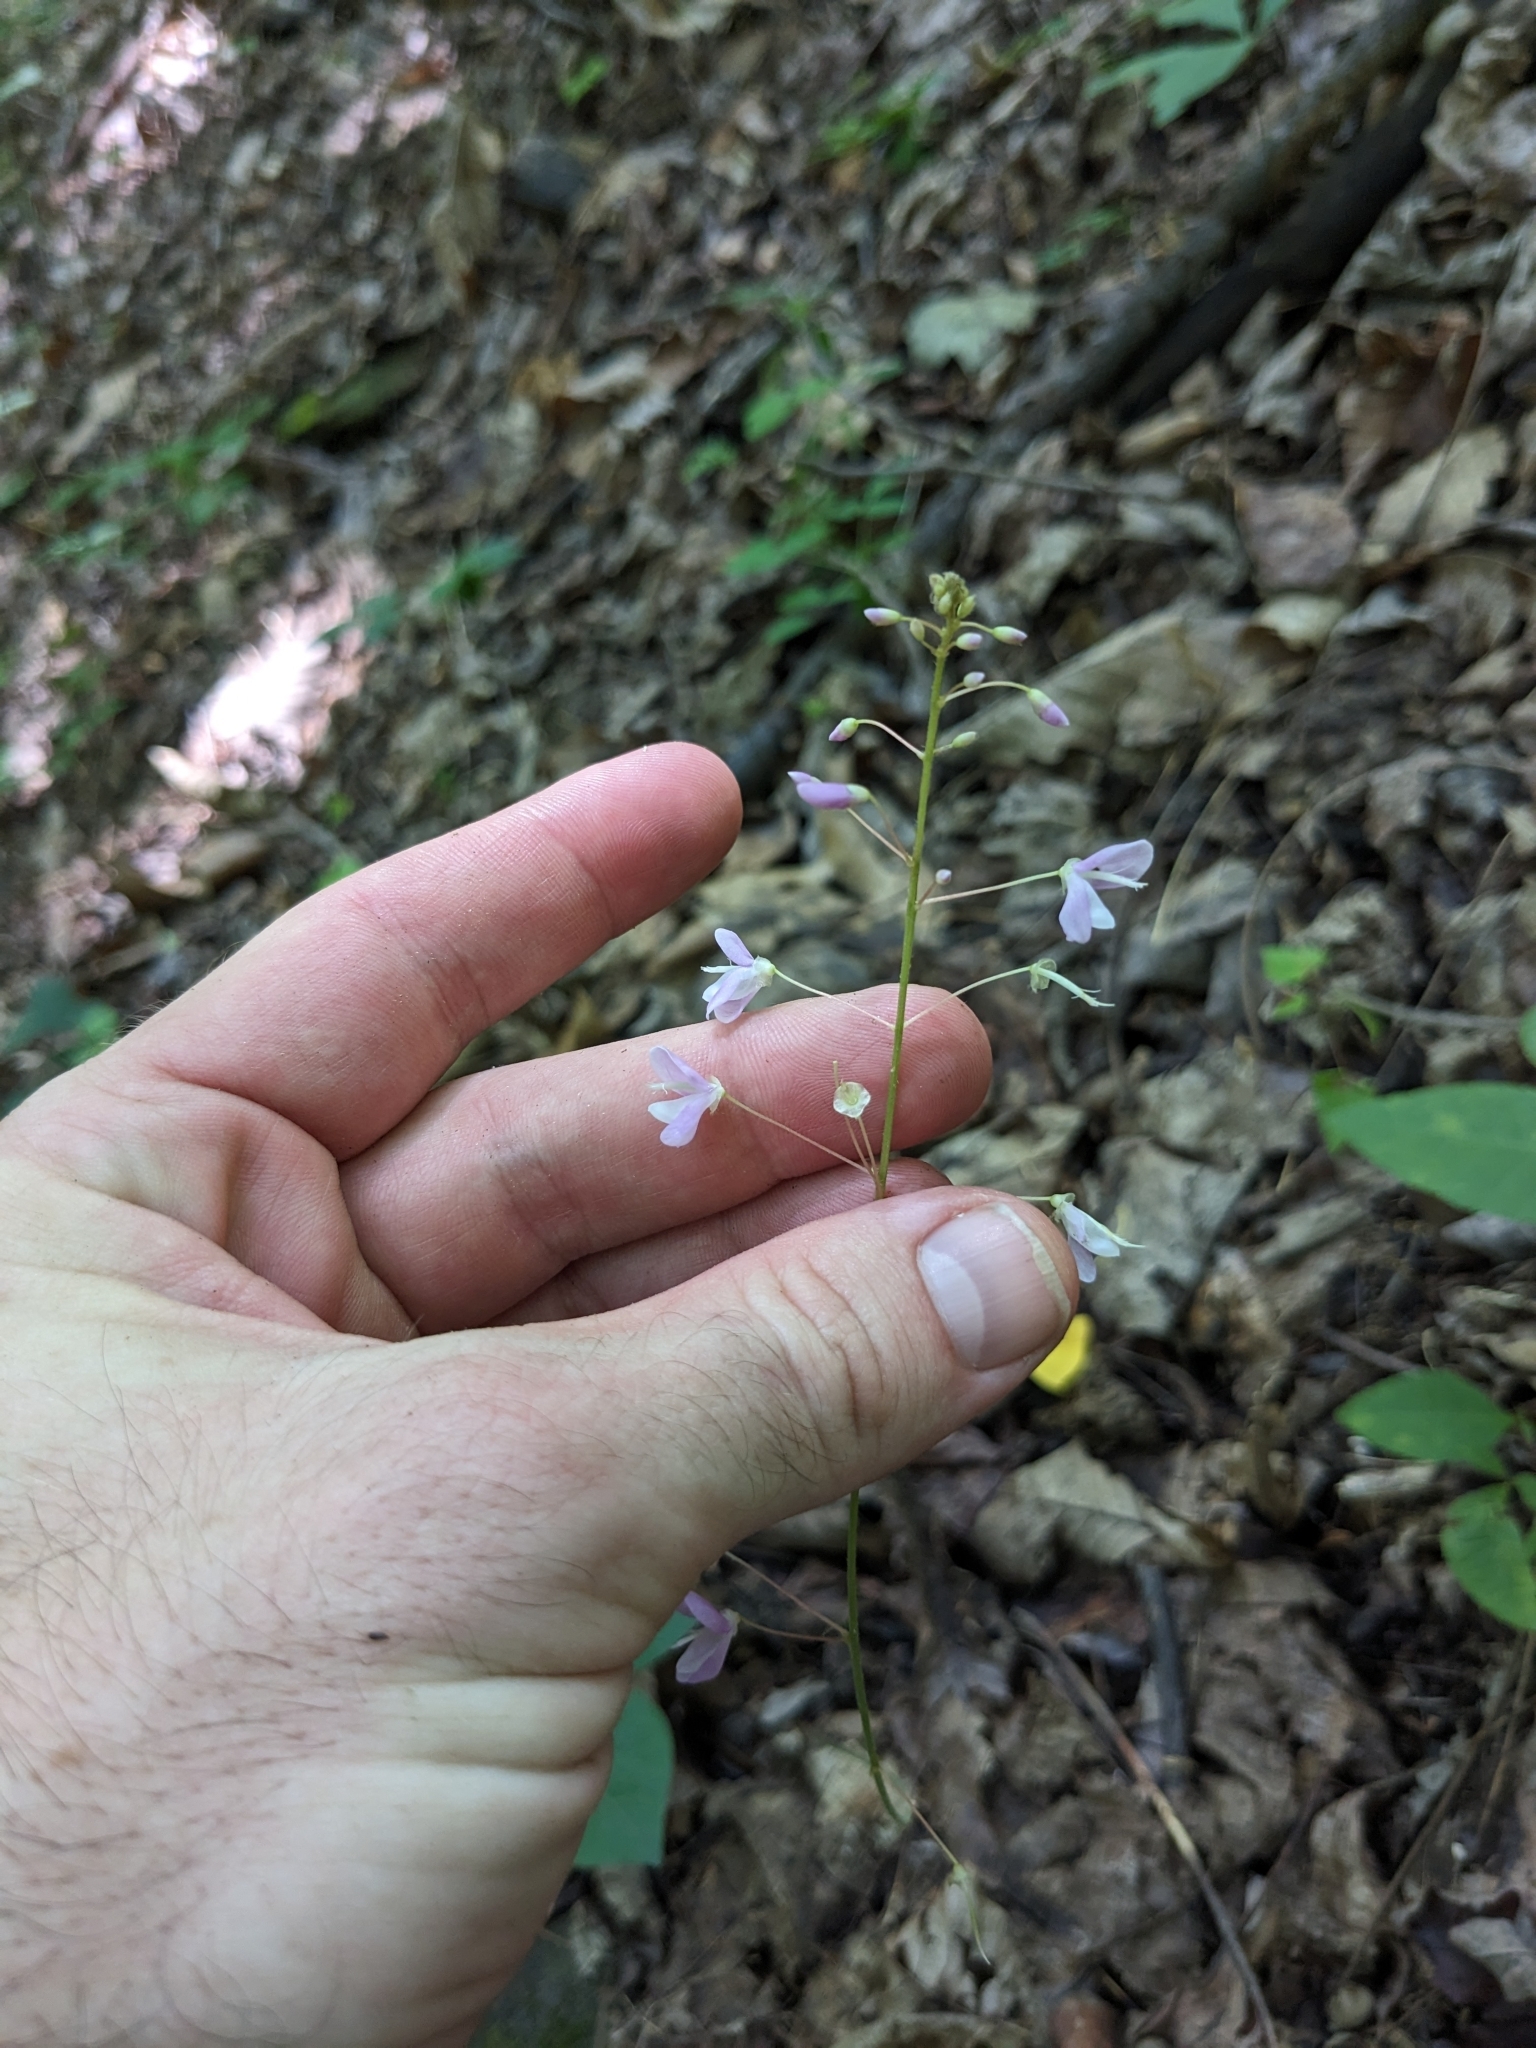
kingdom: Plantae
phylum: Tracheophyta
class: Magnoliopsida
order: Fabales
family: Fabaceae
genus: Hylodesmum
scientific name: Hylodesmum nudiflorum
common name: Bare-stemmed tick-trefoil
